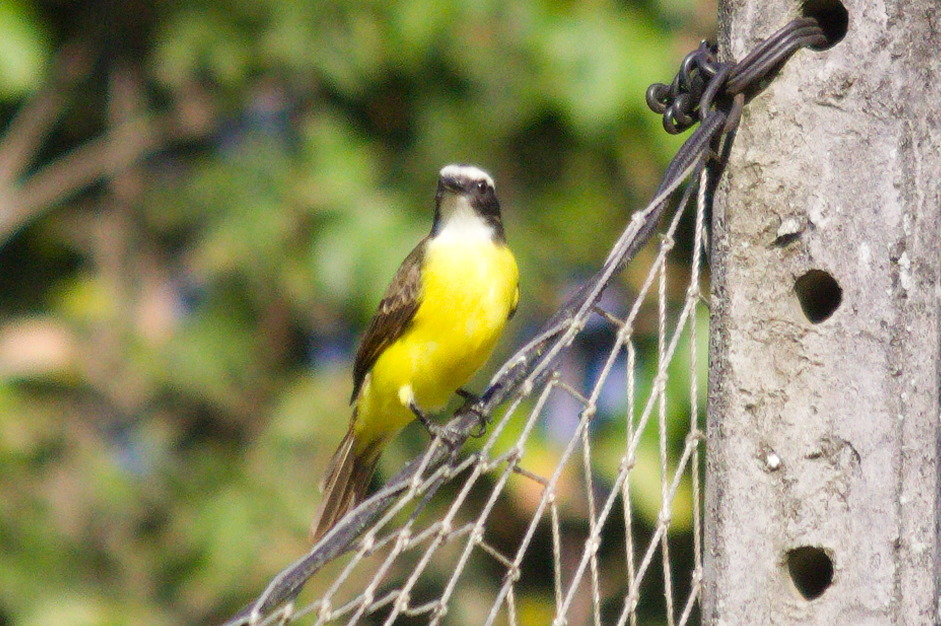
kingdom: Animalia
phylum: Chordata
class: Aves
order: Passeriformes
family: Tyrannidae
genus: Myiozetetes
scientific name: Myiozetetes cayanensis
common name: Rusty-margined flycatcher
